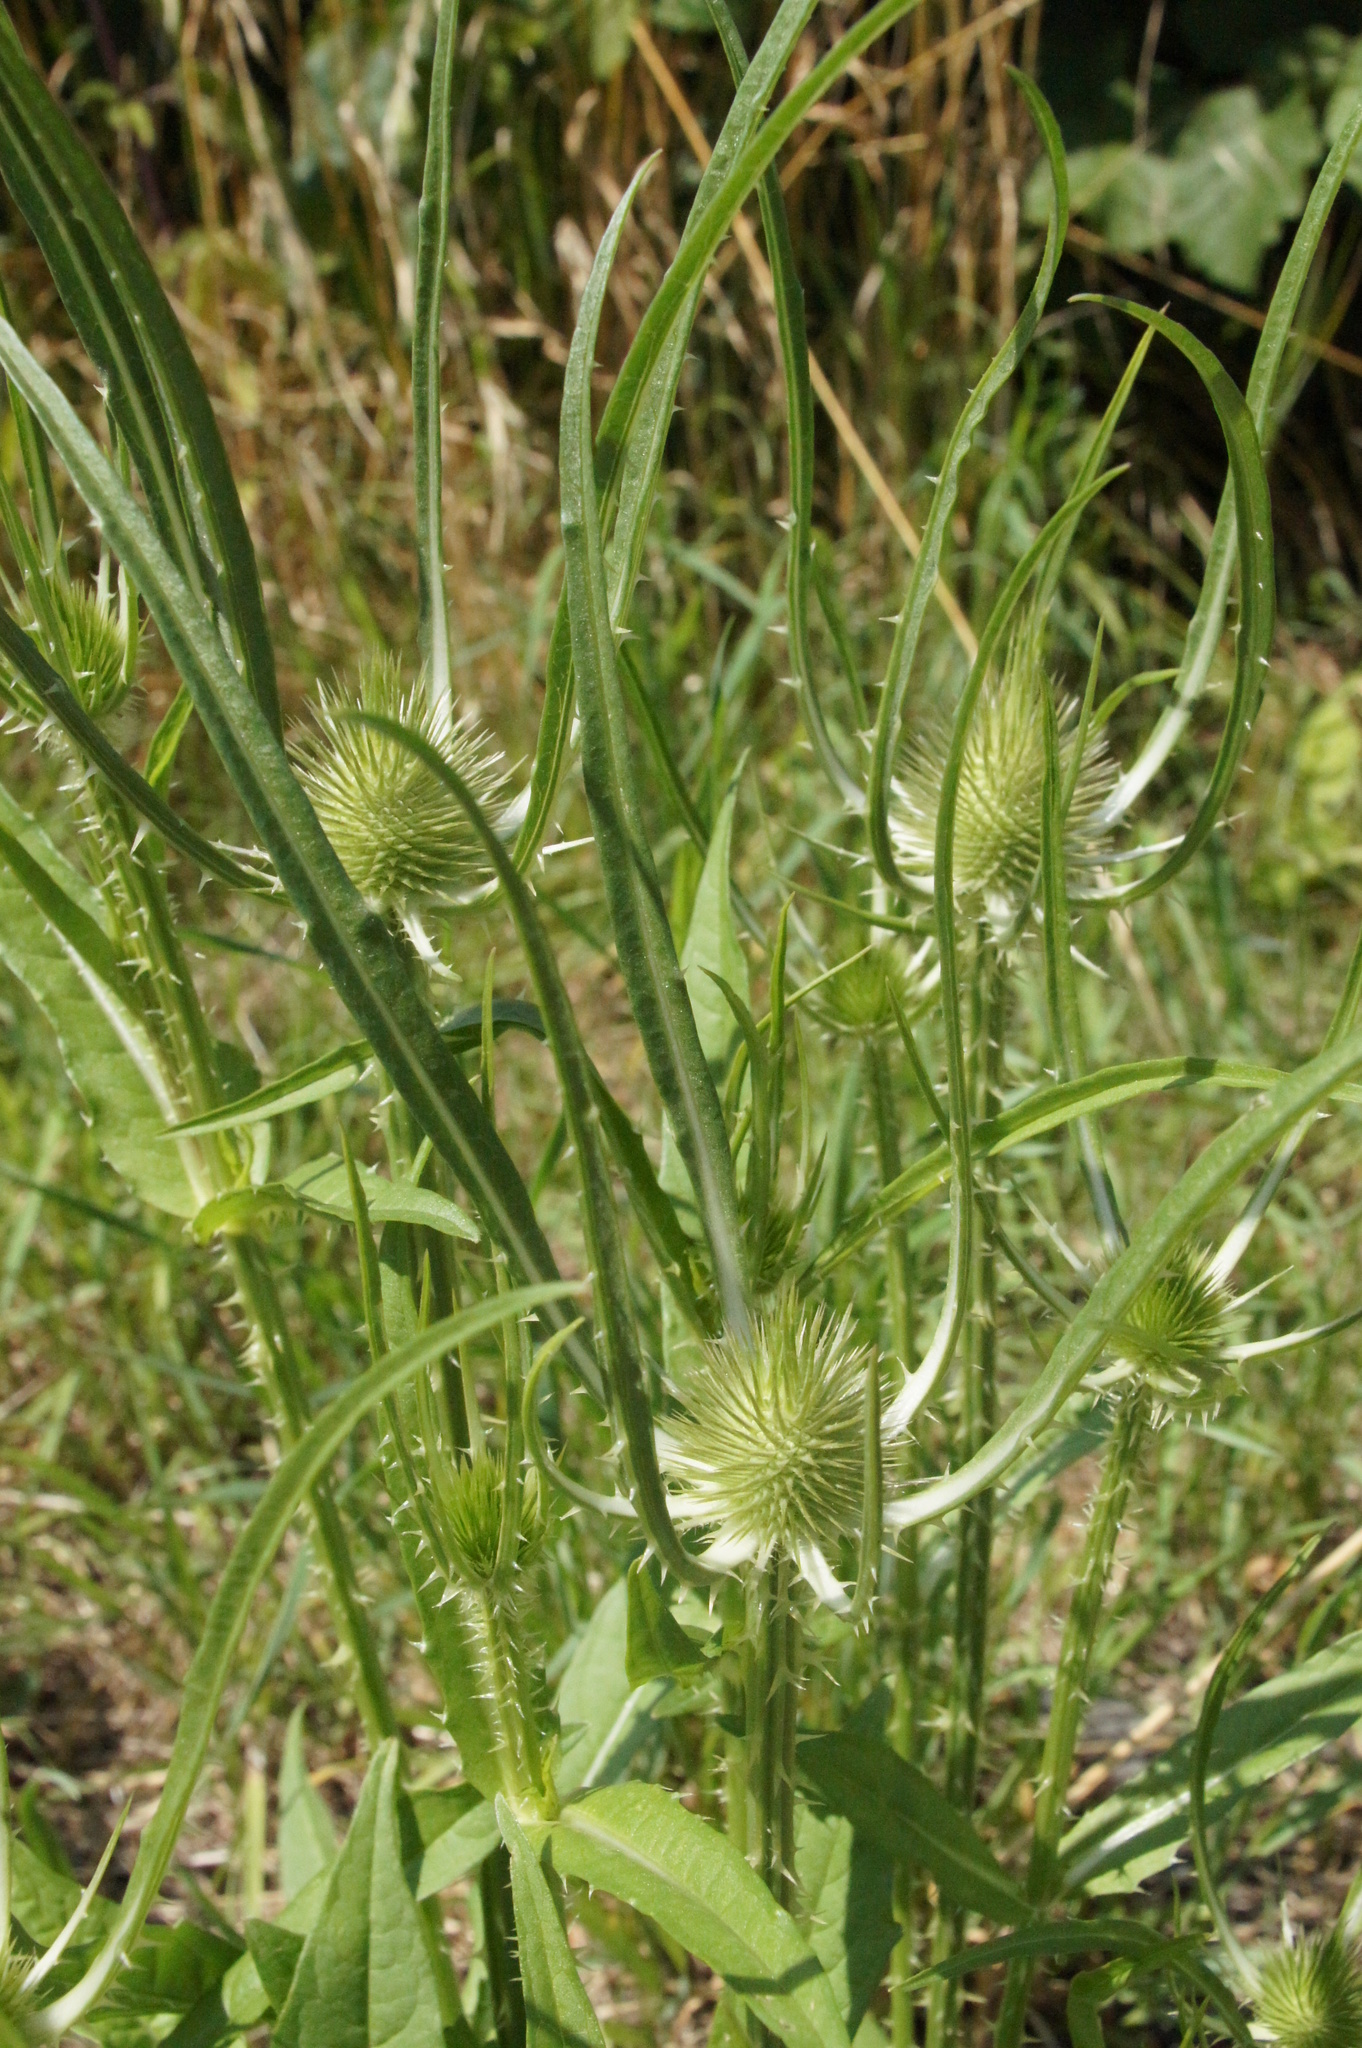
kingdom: Plantae
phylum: Tracheophyta
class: Magnoliopsida
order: Dipsacales
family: Caprifoliaceae
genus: Dipsacus
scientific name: Dipsacus fullonum
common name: Teasel
